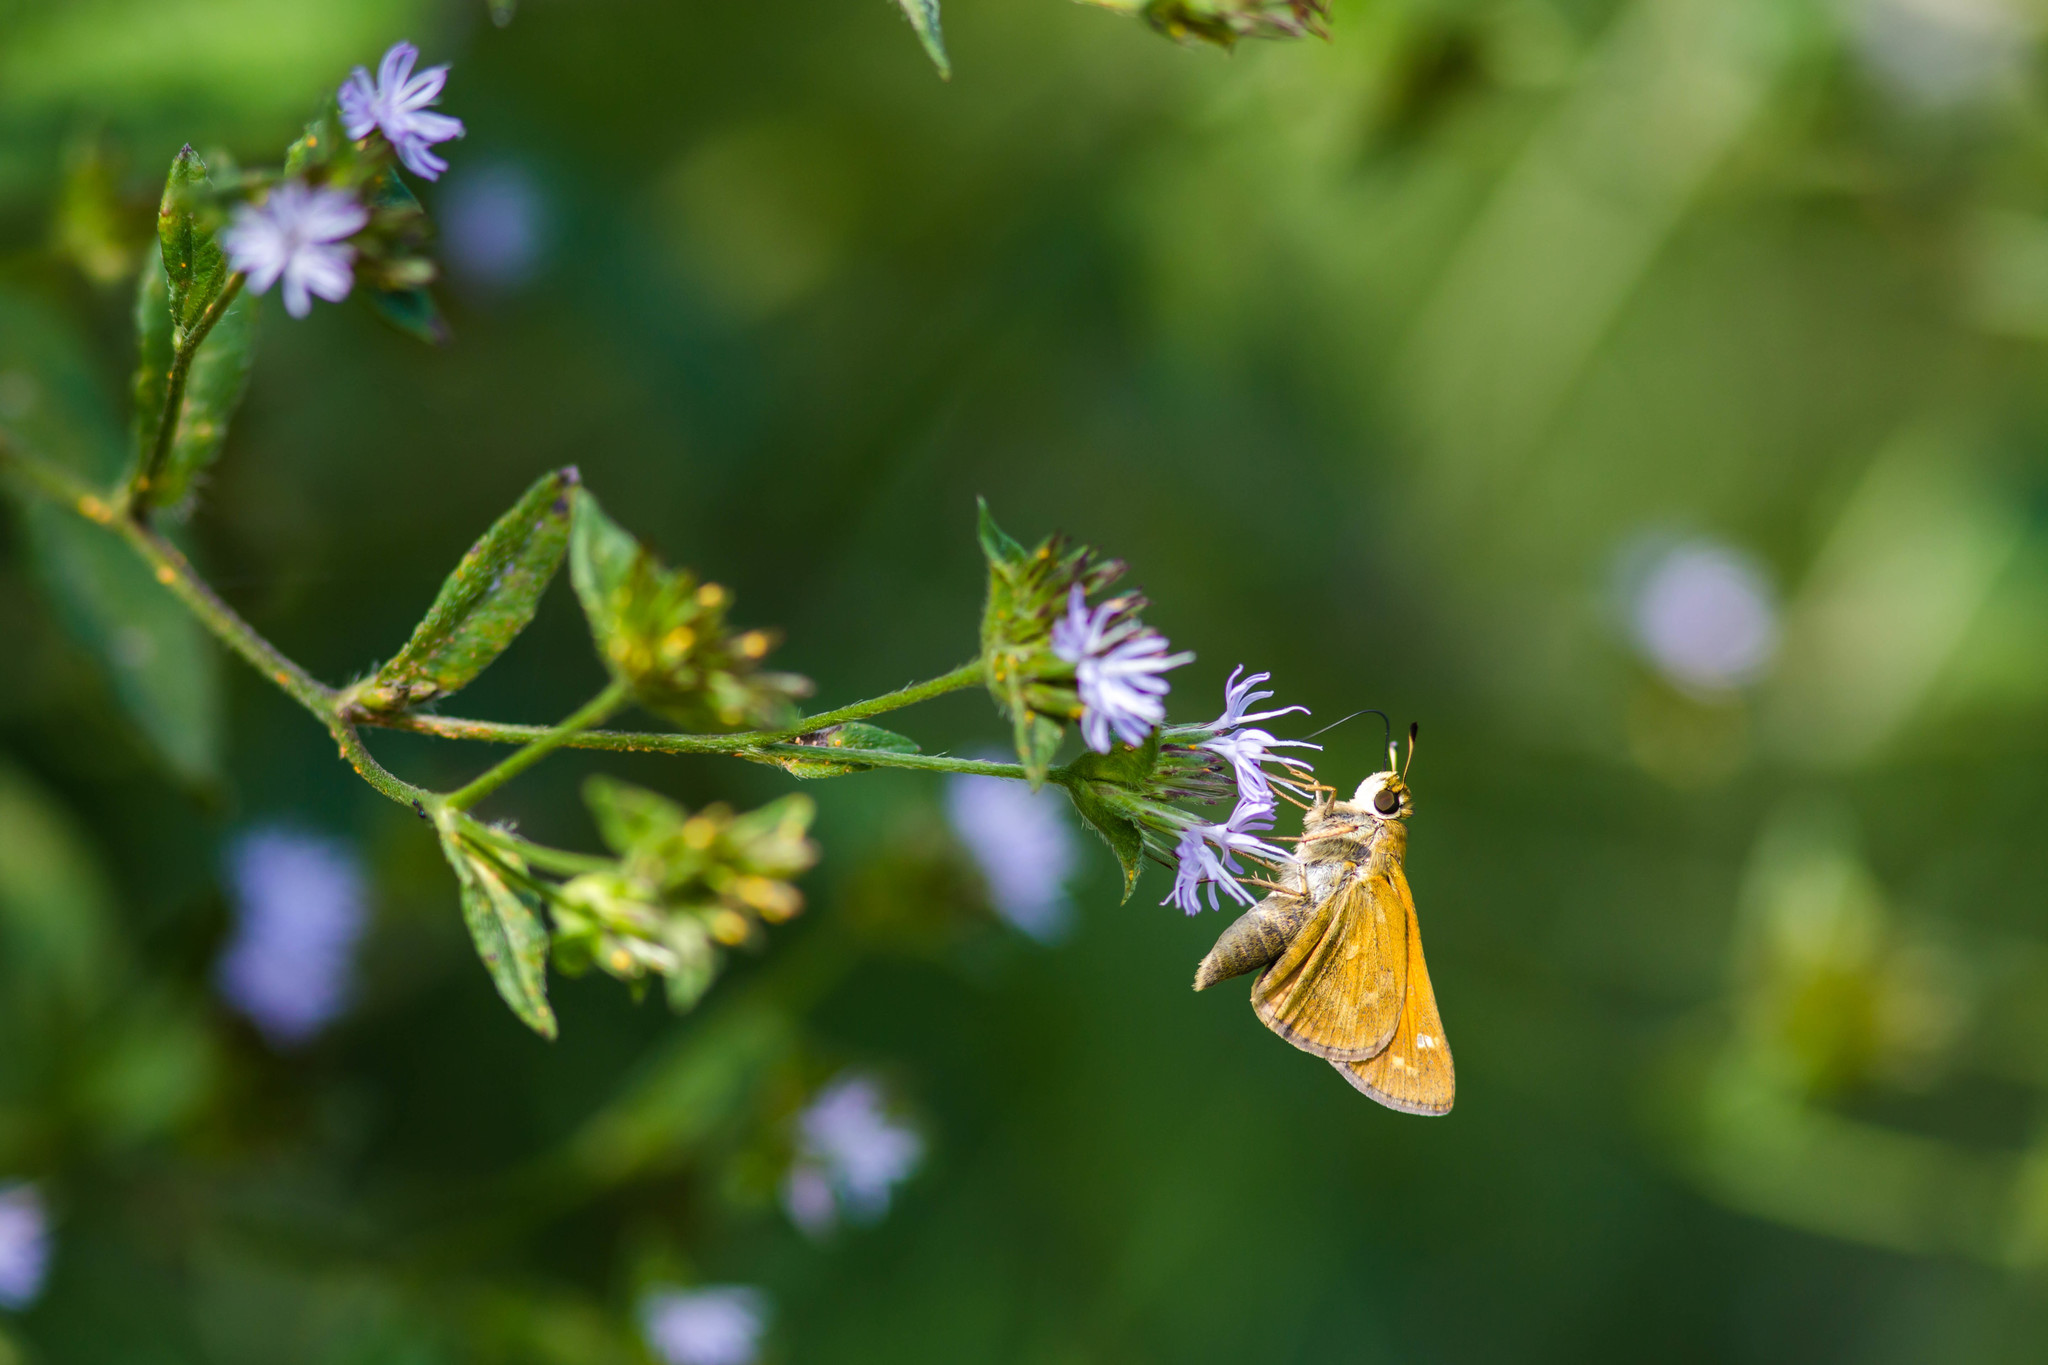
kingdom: Animalia
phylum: Arthropoda
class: Insecta
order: Lepidoptera
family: Hesperiidae
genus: Atalopedes
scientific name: Atalopedes
